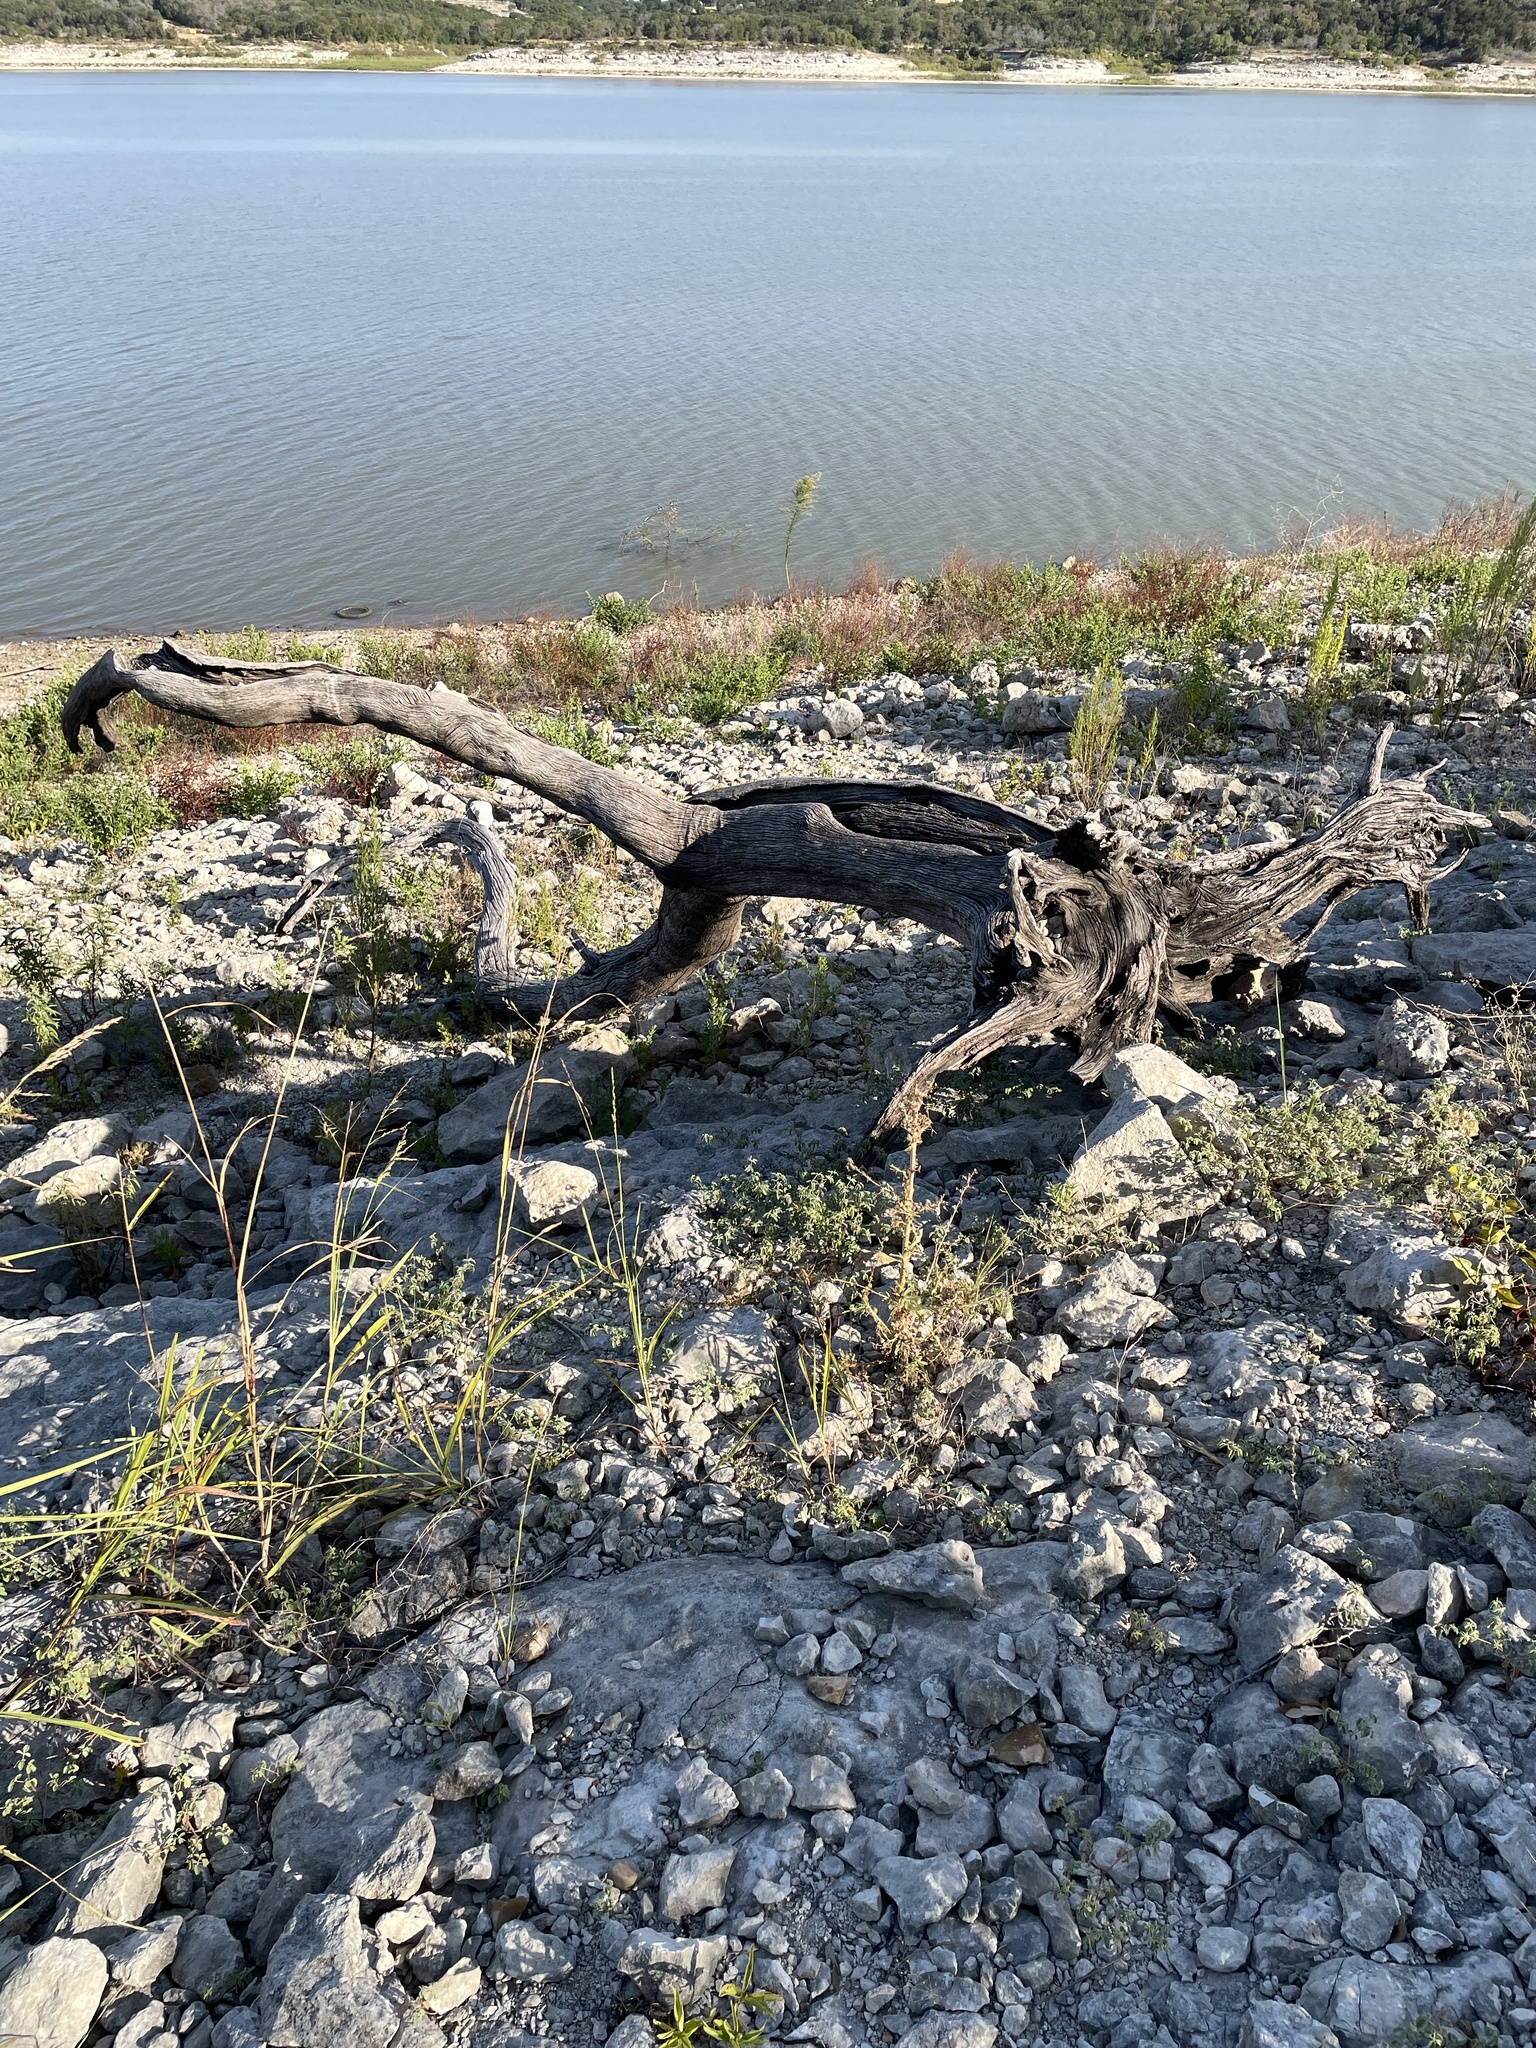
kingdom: Plantae
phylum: Tracheophyta
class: Magnoliopsida
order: Fagales
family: Fagaceae
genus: Quercus
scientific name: Quercus fusiformis
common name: Texas live oak
